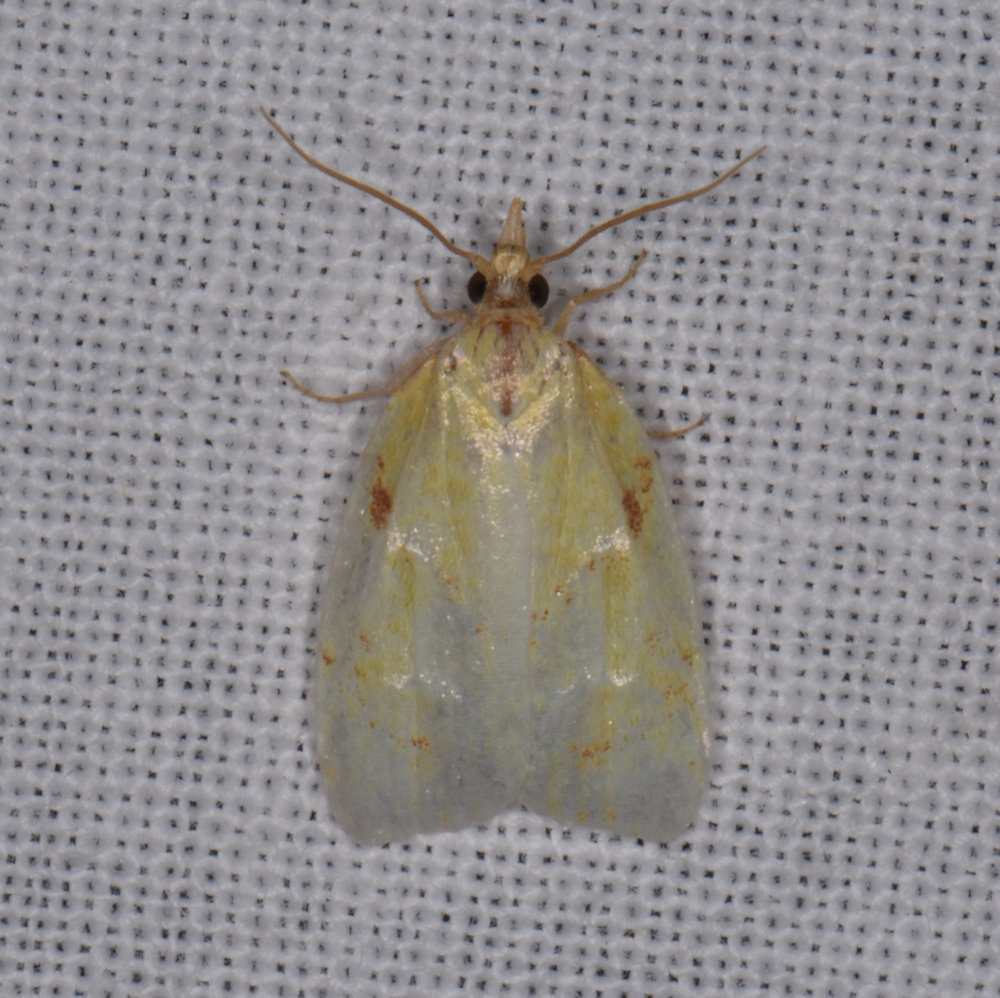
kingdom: Animalia
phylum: Arthropoda
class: Insecta
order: Lepidoptera
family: Tortricidae
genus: Cenopis
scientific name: Cenopis pettitana
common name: Maple-basswood leafroller moth
